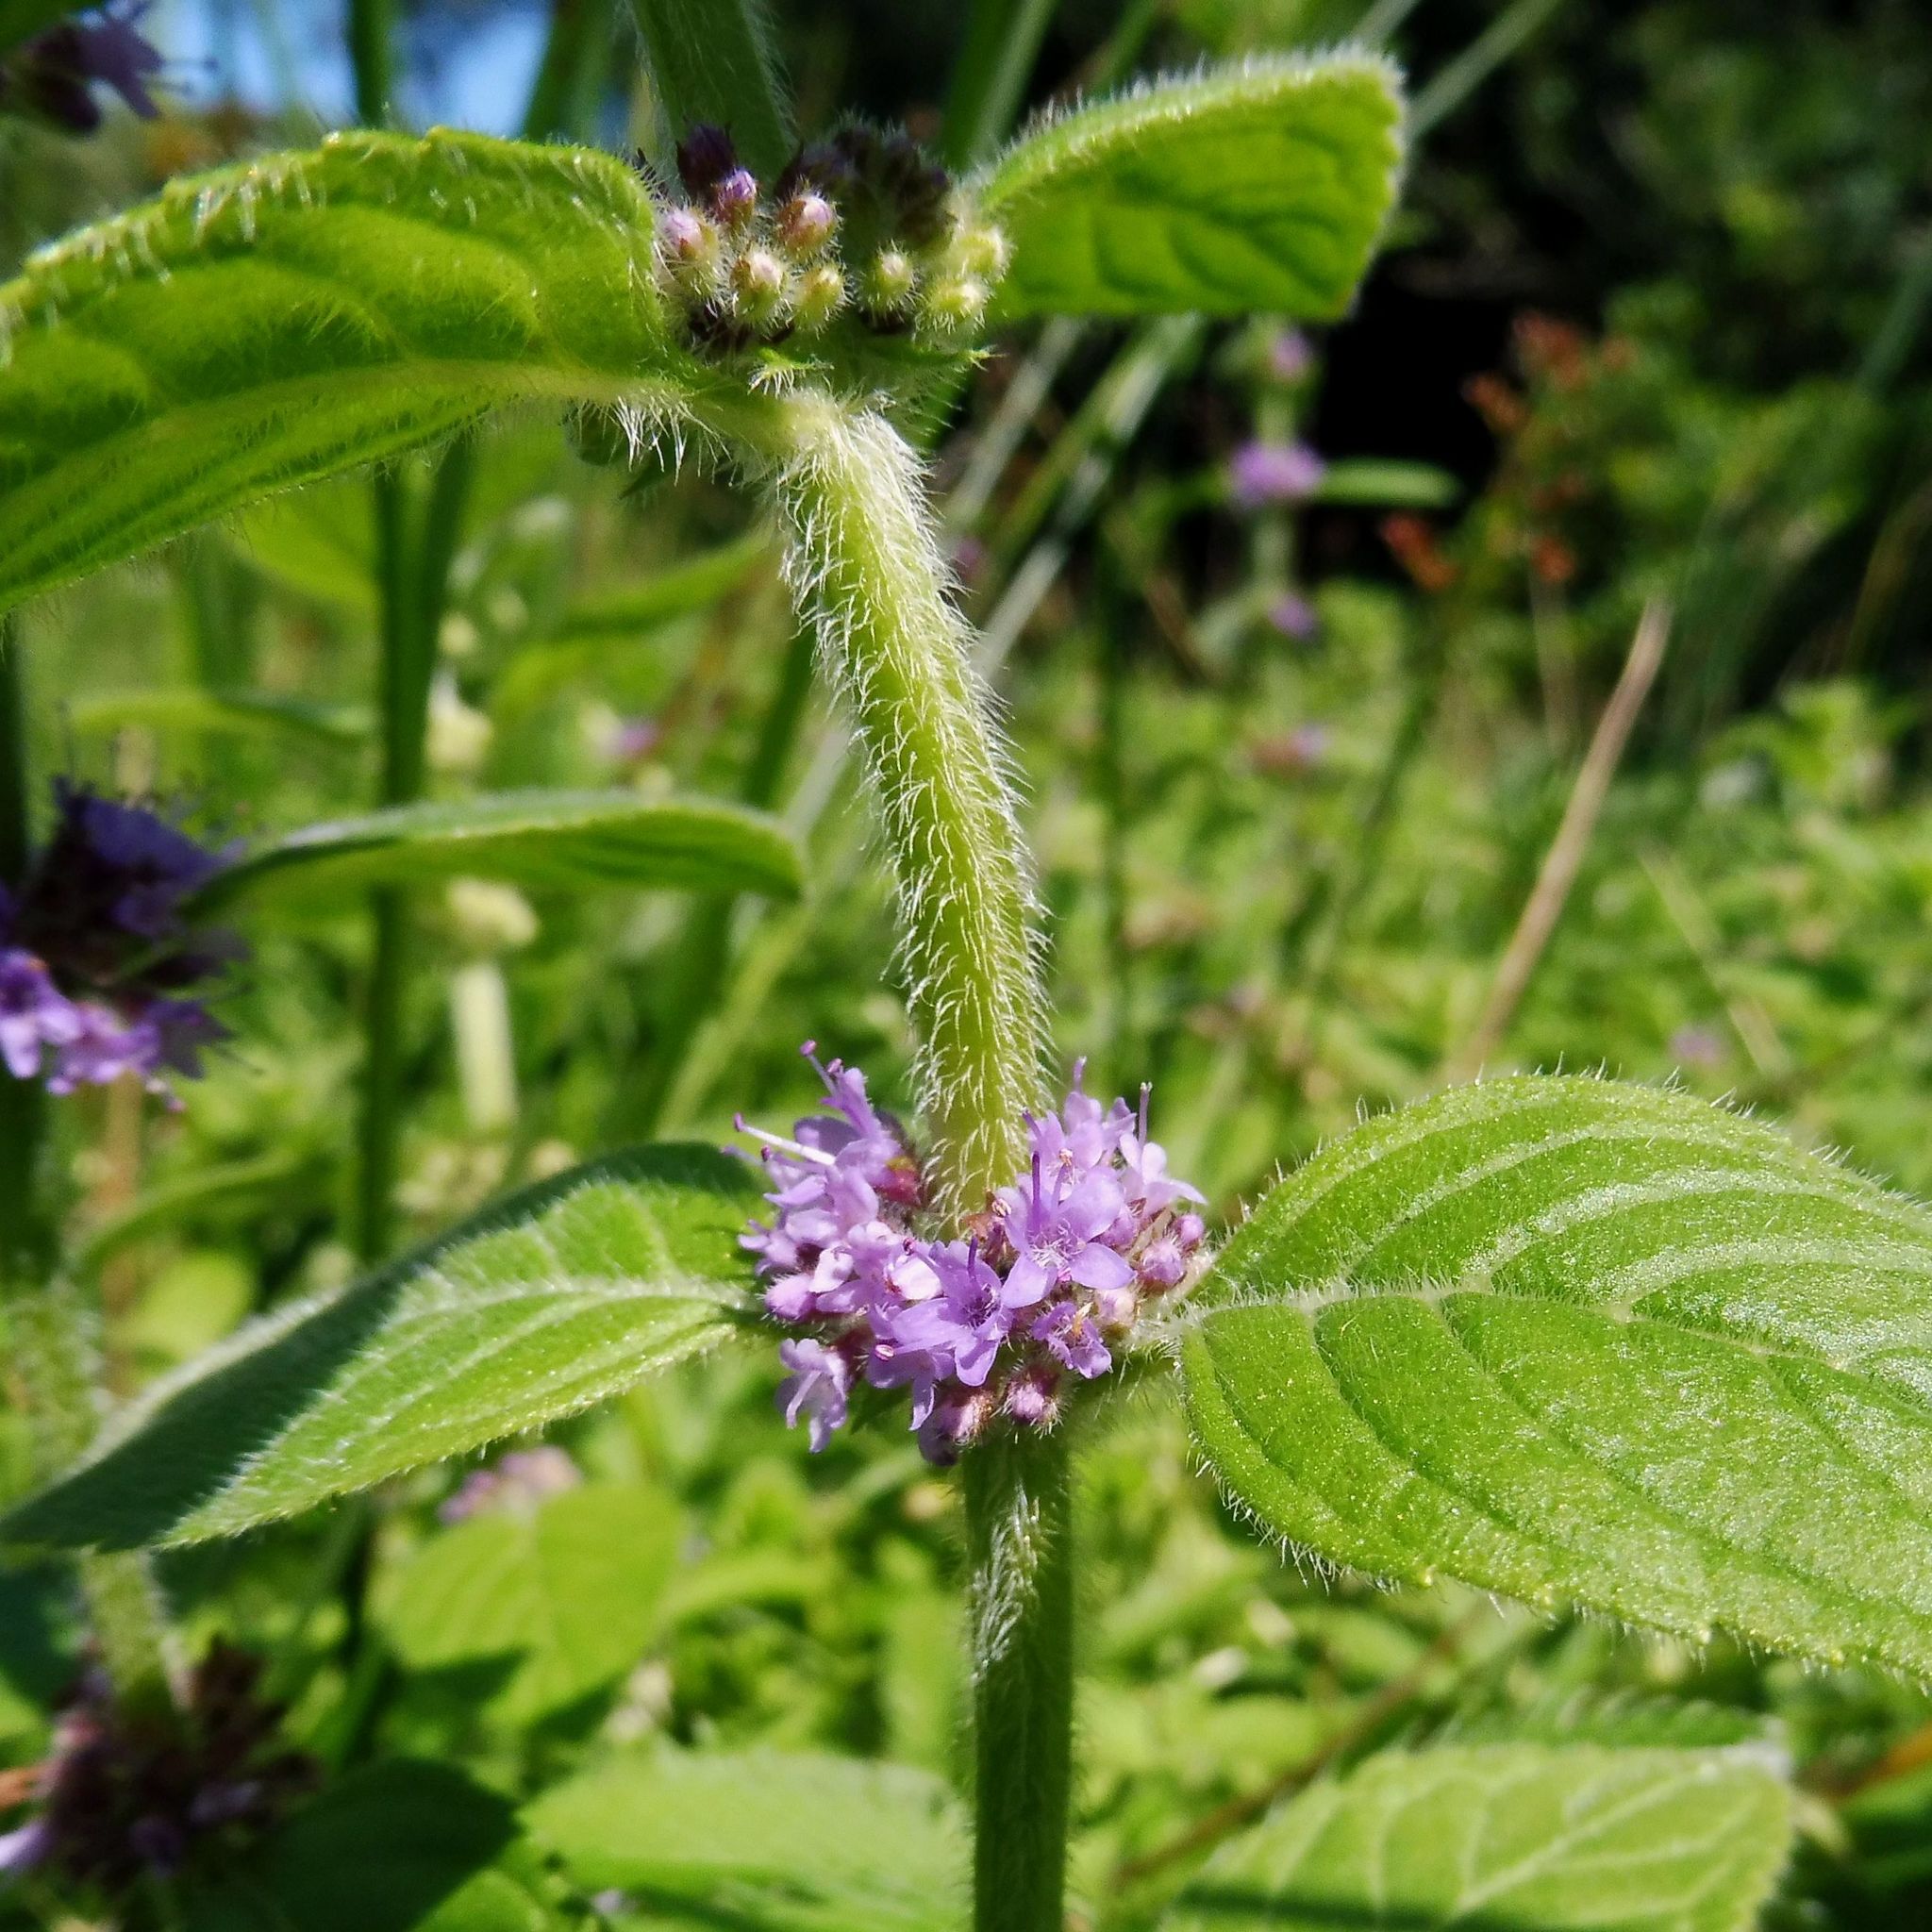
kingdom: Plantae
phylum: Tracheophyta
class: Magnoliopsida
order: Lamiales
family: Lamiaceae
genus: Mentha
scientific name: Mentha arvensis
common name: Corn mint
